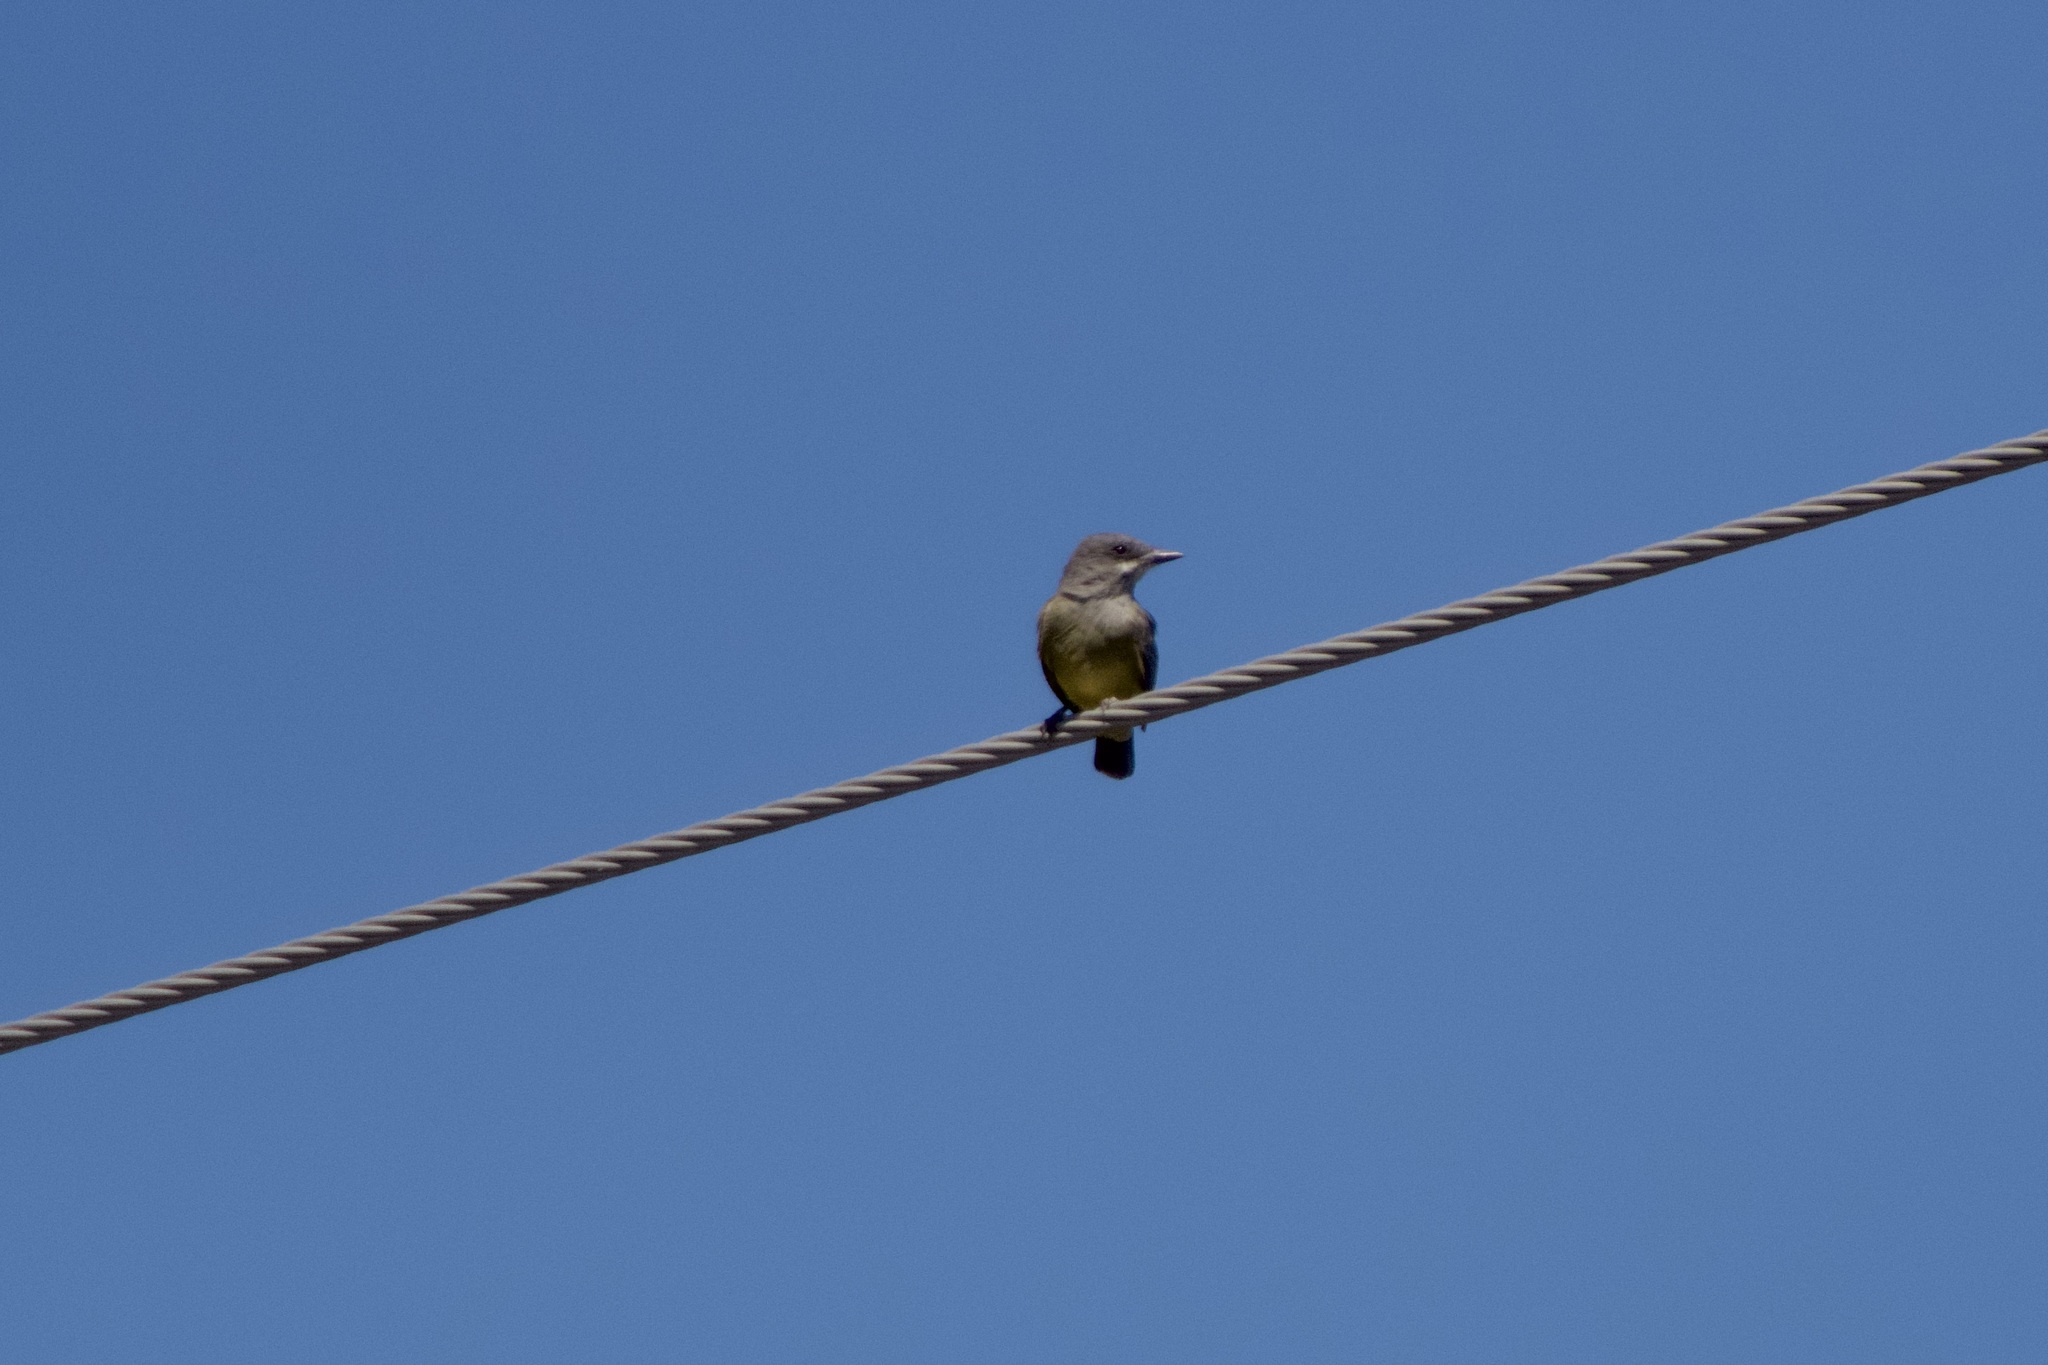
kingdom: Animalia
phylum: Chordata
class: Aves
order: Passeriformes
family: Tyrannidae
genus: Tyrannus
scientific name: Tyrannus vociferans
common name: Cassin's kingbird
